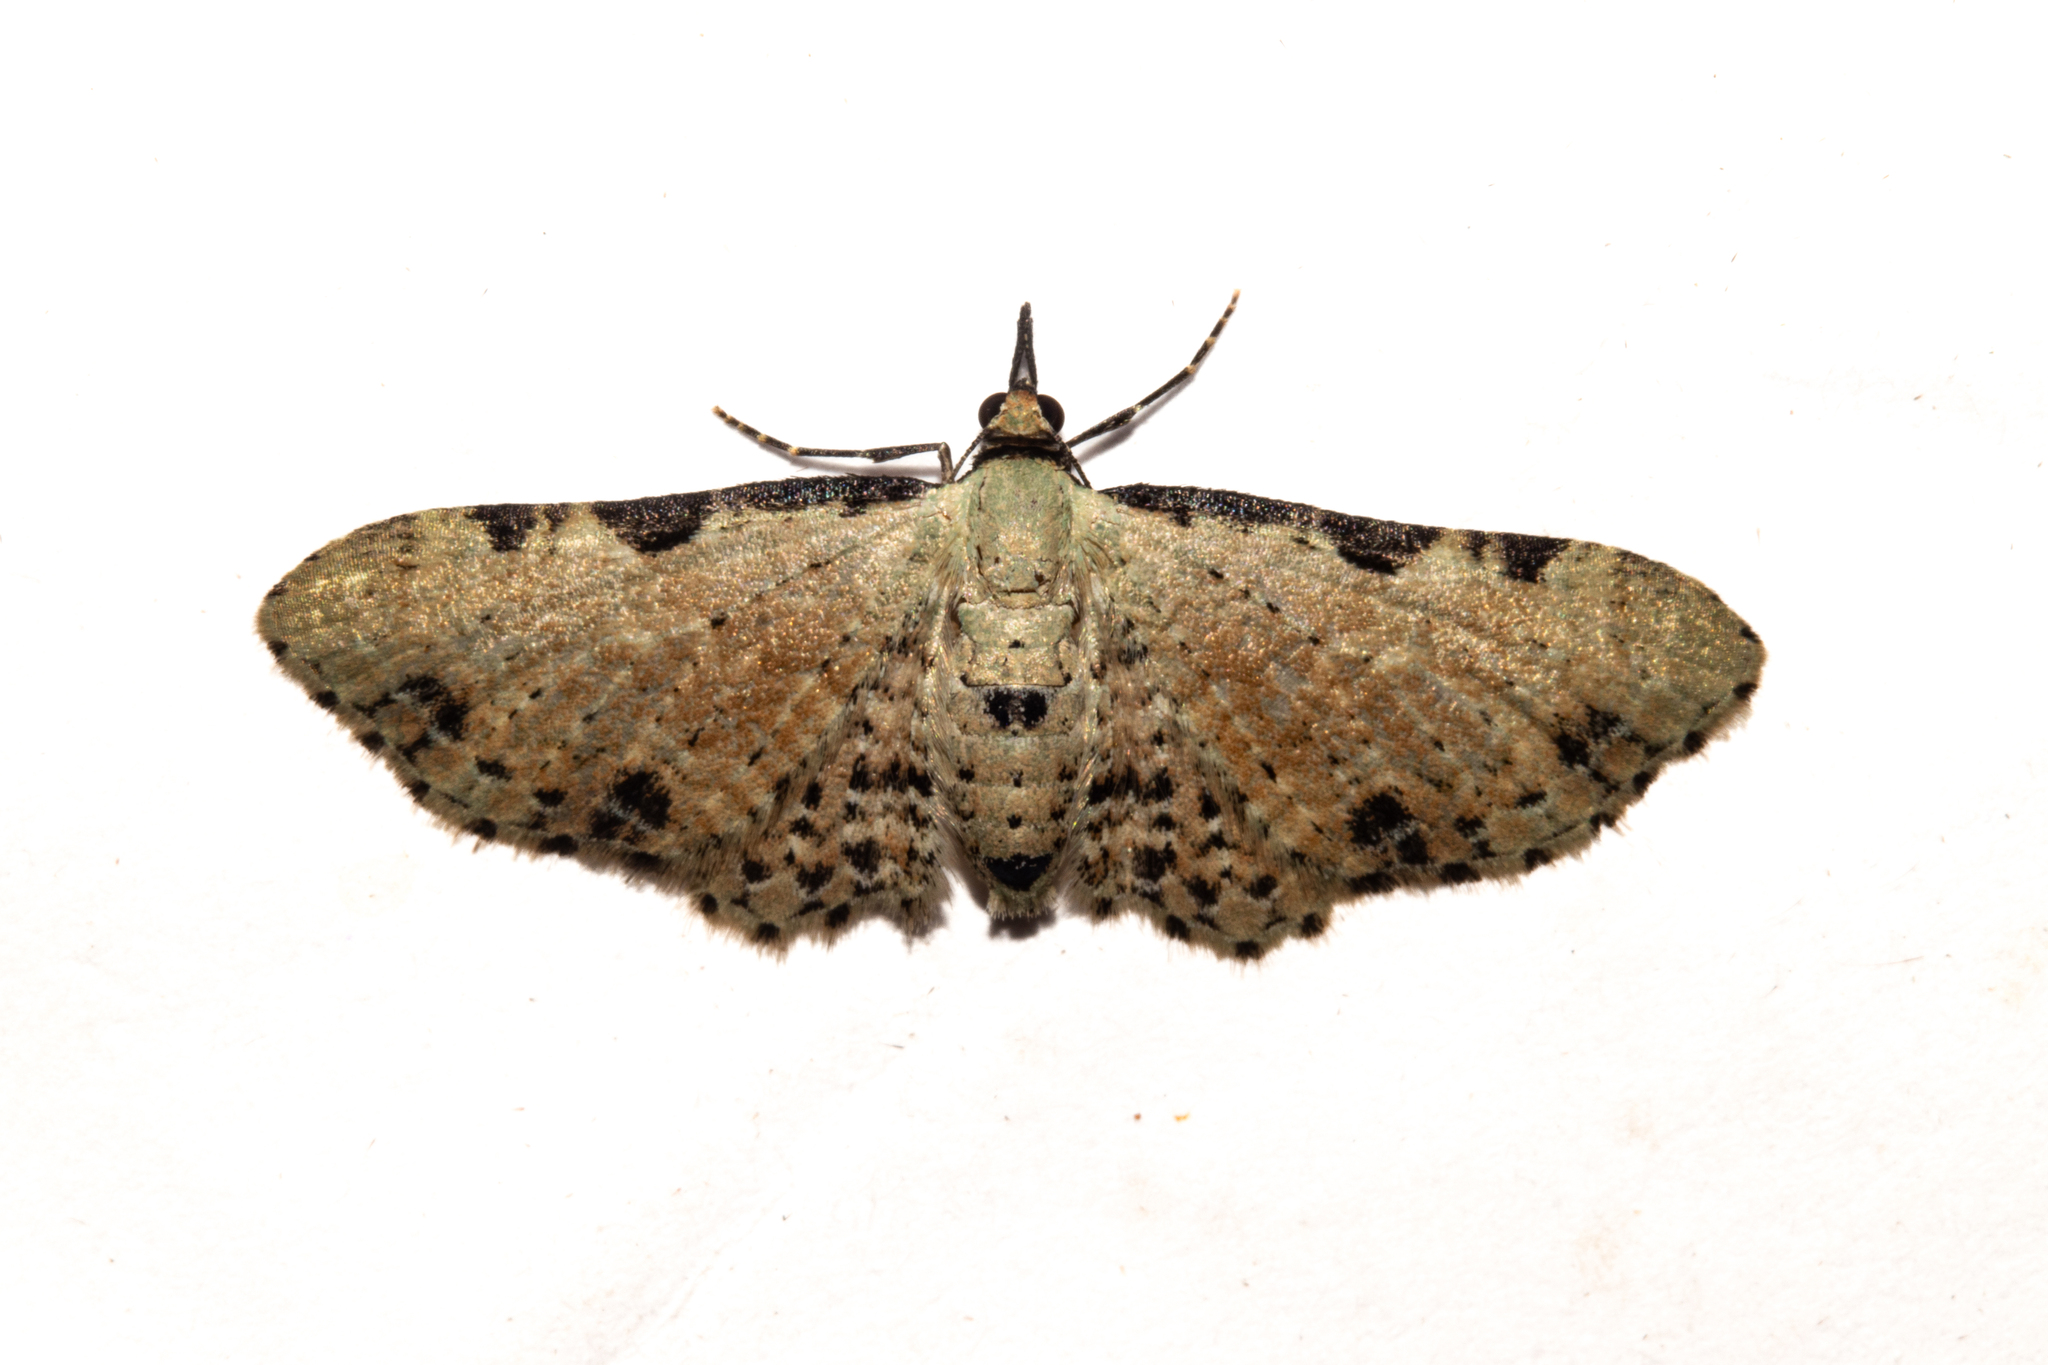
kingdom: Animalia
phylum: Arthropoda
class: Insecta
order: Lepidoptera
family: Geometridae
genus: Pasiphila
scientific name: Pasiphila fumipalpata
